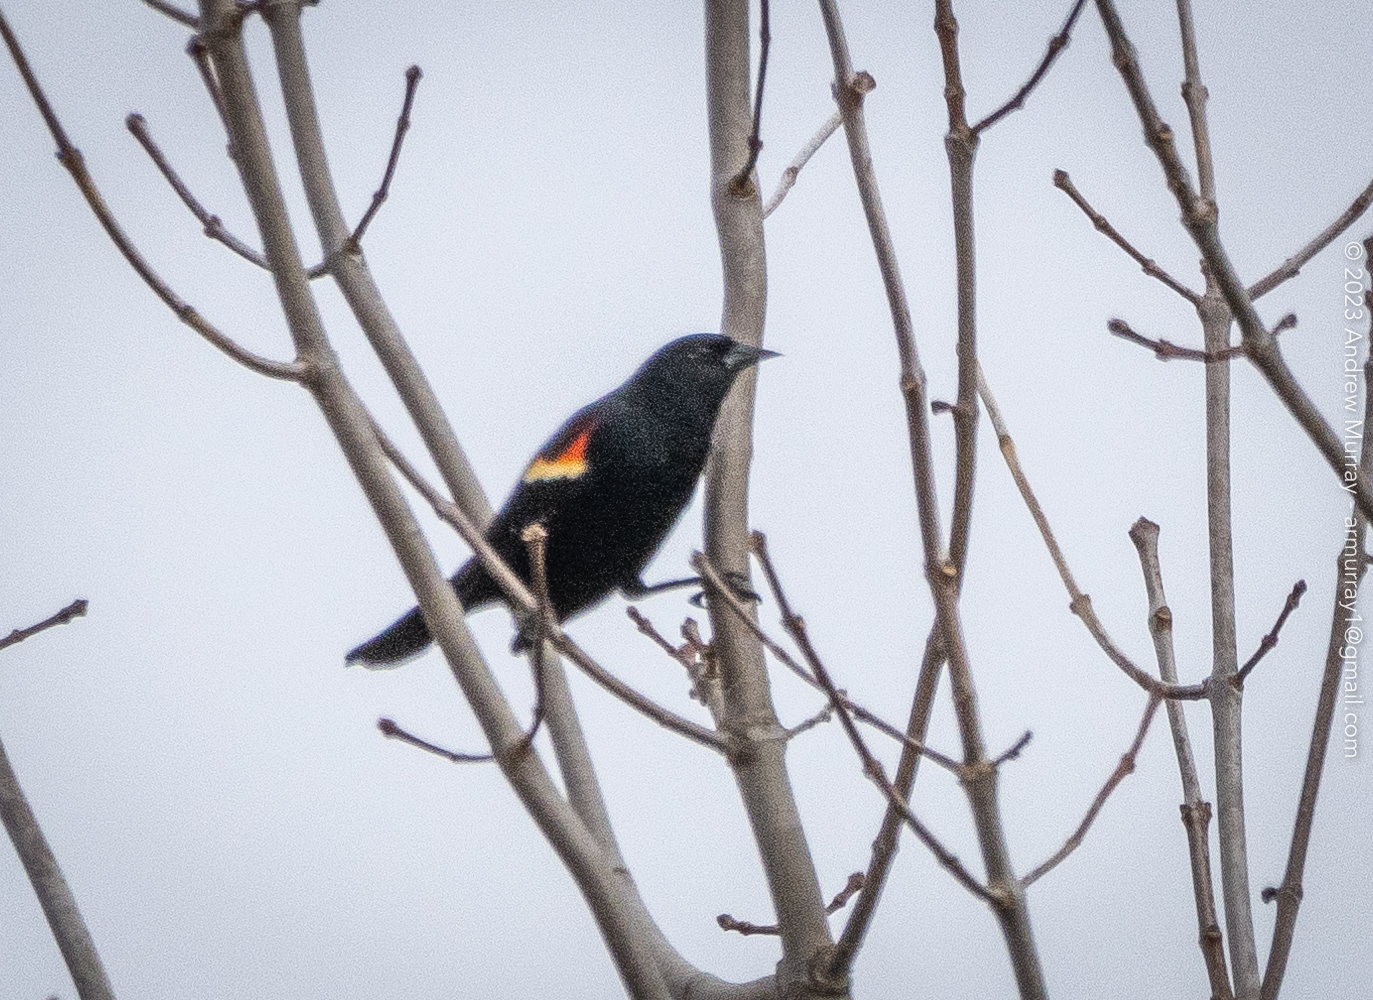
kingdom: Animalia
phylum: Chordata
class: Aves
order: Passeriformes
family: Icteridae
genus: Agelaius
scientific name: Agelaius phoeniceus
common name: Red-winged blackbird
